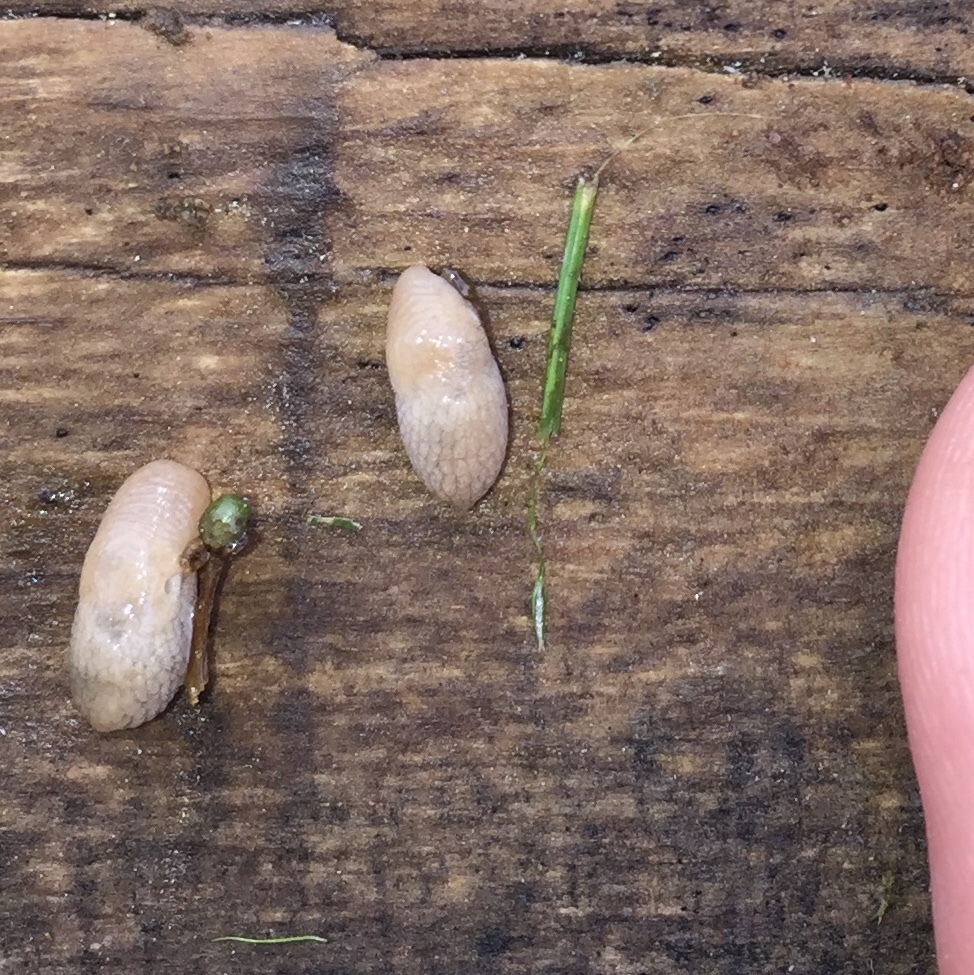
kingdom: Animalia
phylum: Mollusca
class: Gastropoda
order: Stylommatophora
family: Agriolimacidae
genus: Deroceras
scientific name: Deroceras reticulatum
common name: Gray field slug
